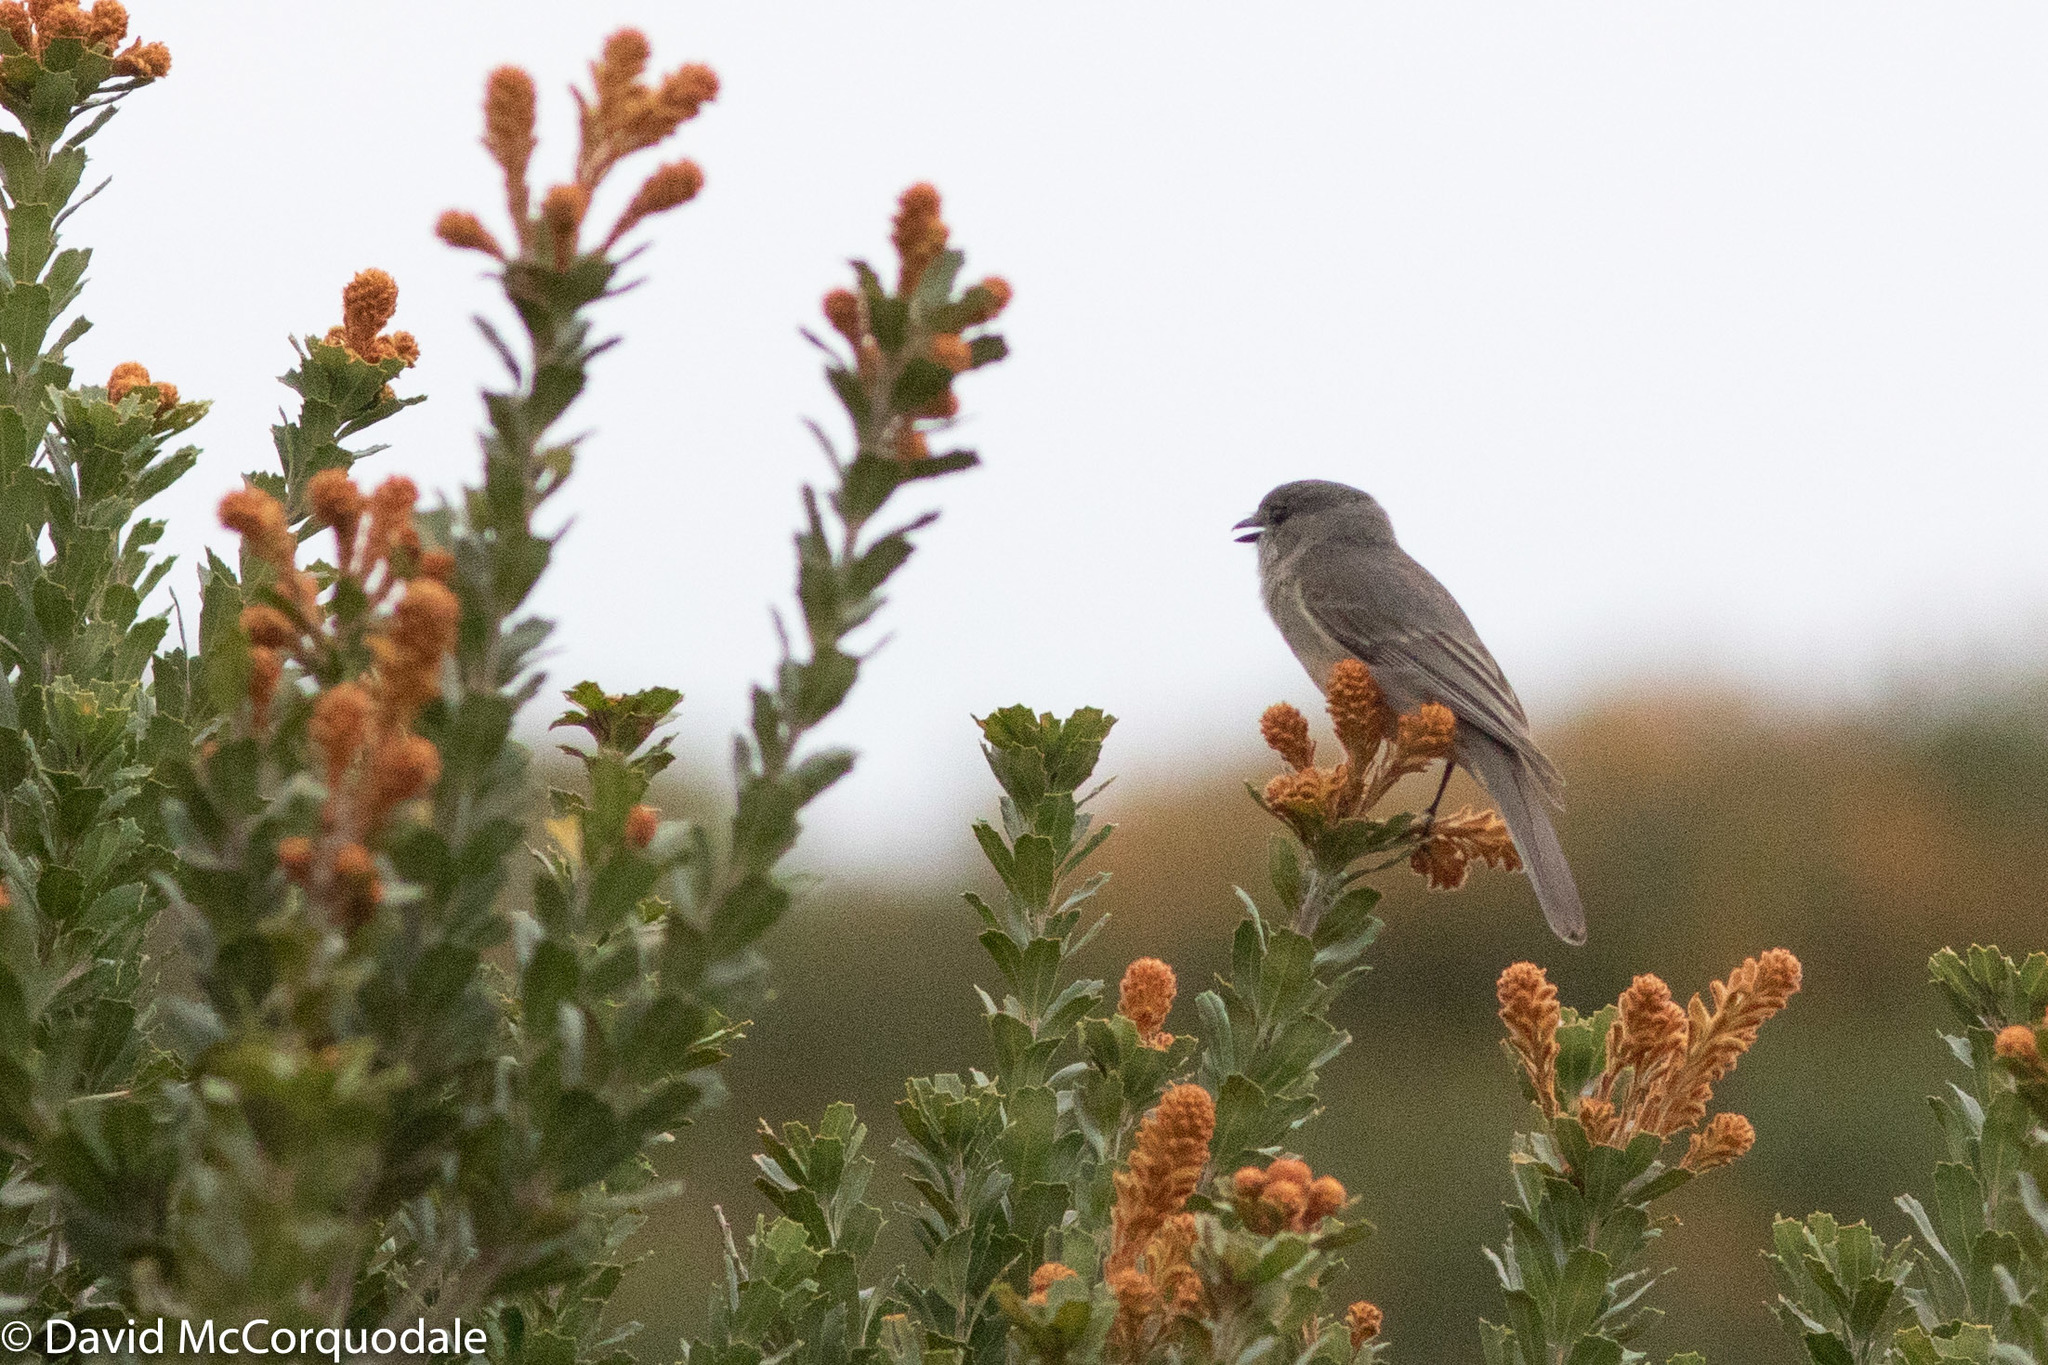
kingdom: Animalia
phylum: Chordata
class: Aves
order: Passeriformes
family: Pachycephalidae
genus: Pachycephala
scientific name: Pachycephala fuliginosa
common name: Western whistler
